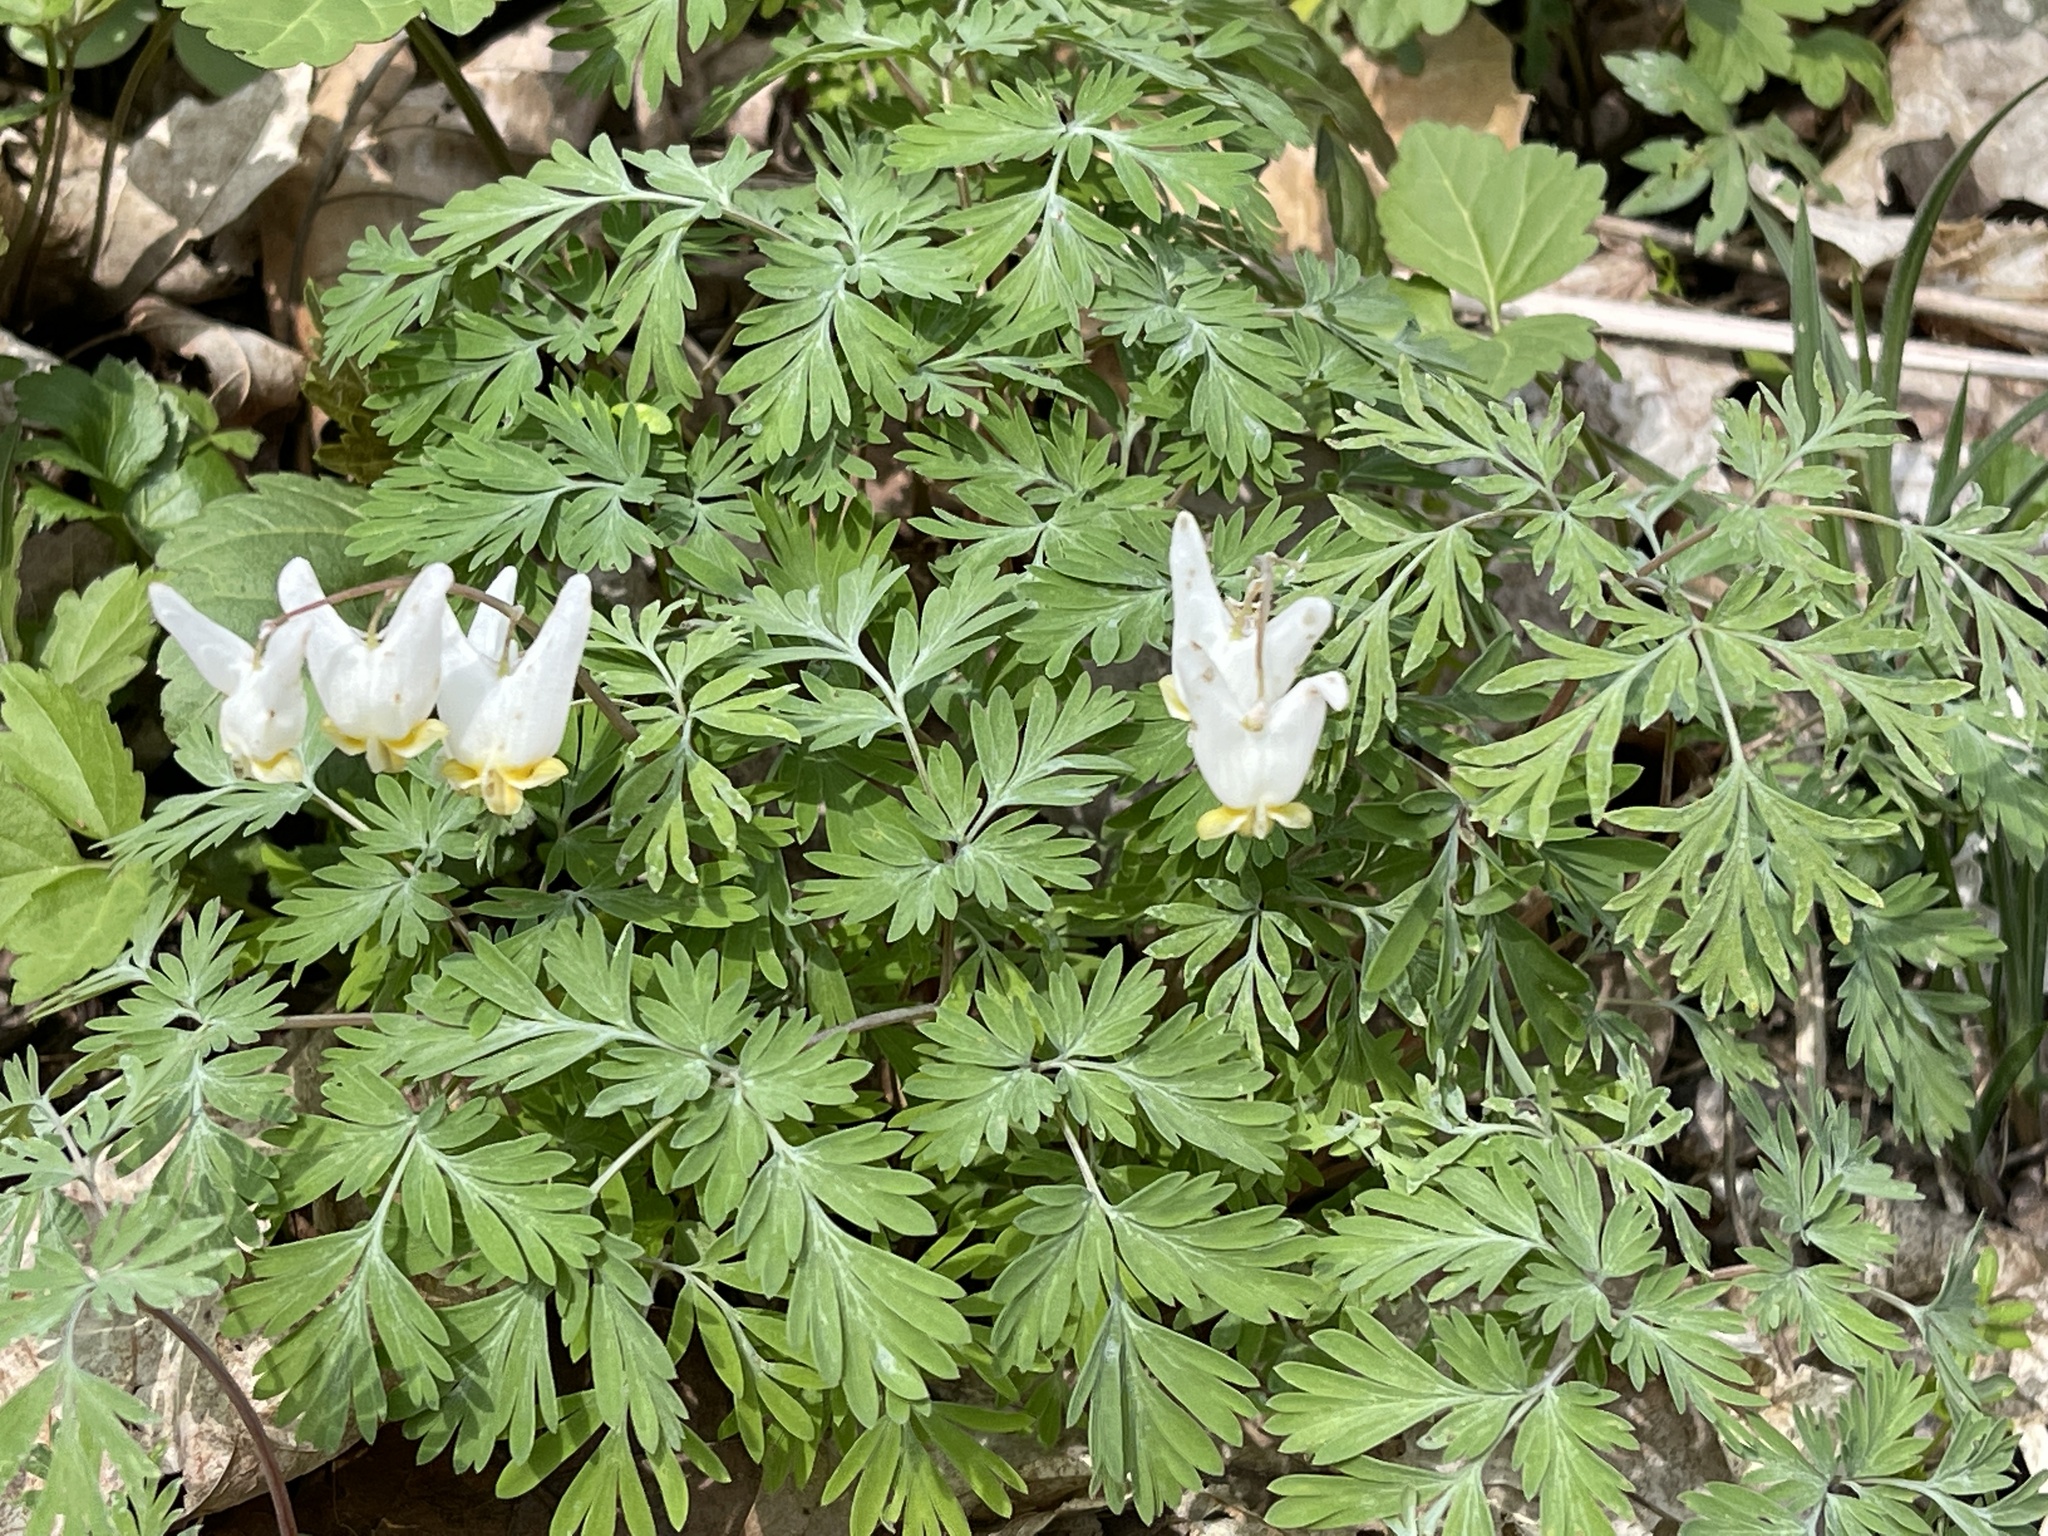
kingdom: Plantae
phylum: Tracheophyta
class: Magnoliopsida
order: Ranunculales
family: Papaveraceae
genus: Dicentra
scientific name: Dicentra cucullaria
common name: Dutchman's breeches
